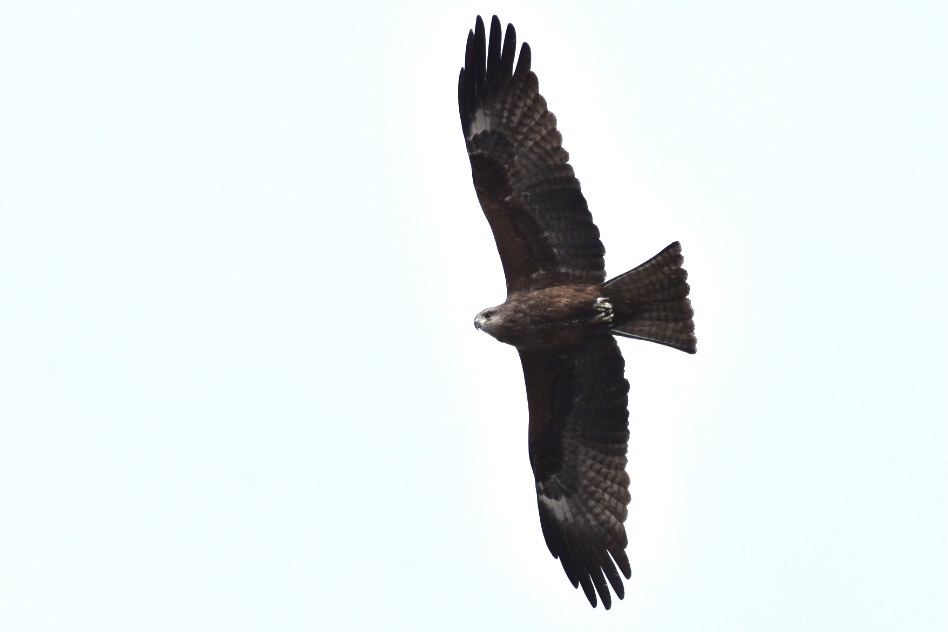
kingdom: Animalia
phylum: Chordata
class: Aves
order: Accipitriformes
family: Accipitridae
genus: Milvus
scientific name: Milvus migrans
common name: Black kite
